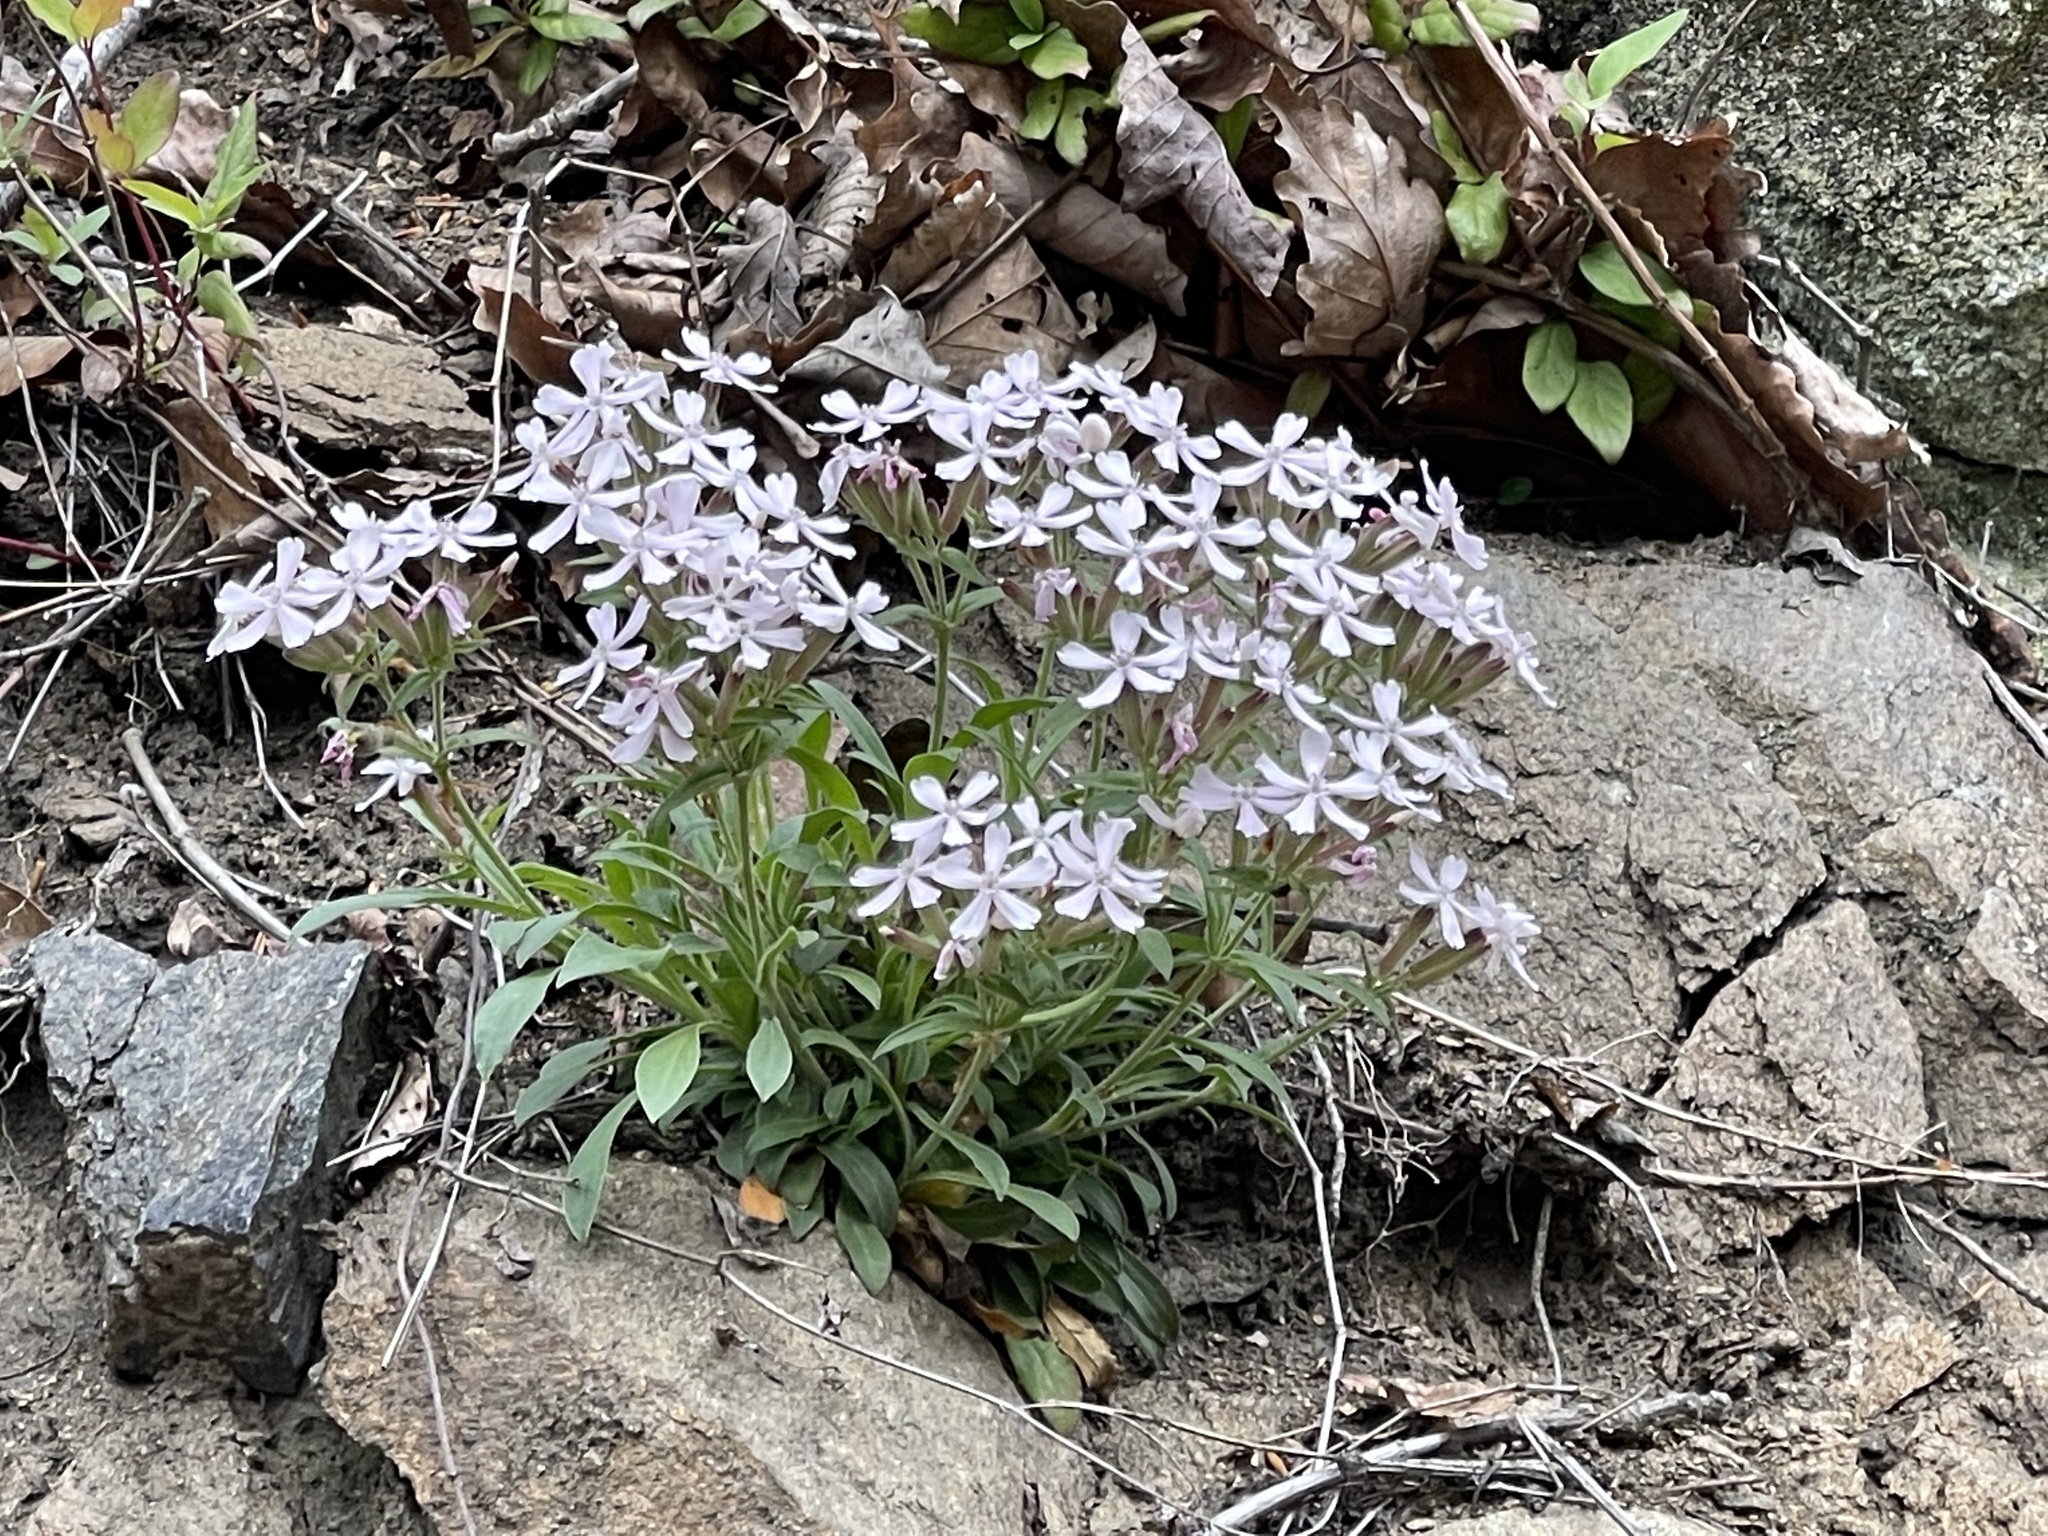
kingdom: Plantae
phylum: Tracheophyta
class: Magnoliopsida
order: Caryophyllales
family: Caryophyllaceae
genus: Silene
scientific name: Silene caroliniana
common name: Sticky catchfly
